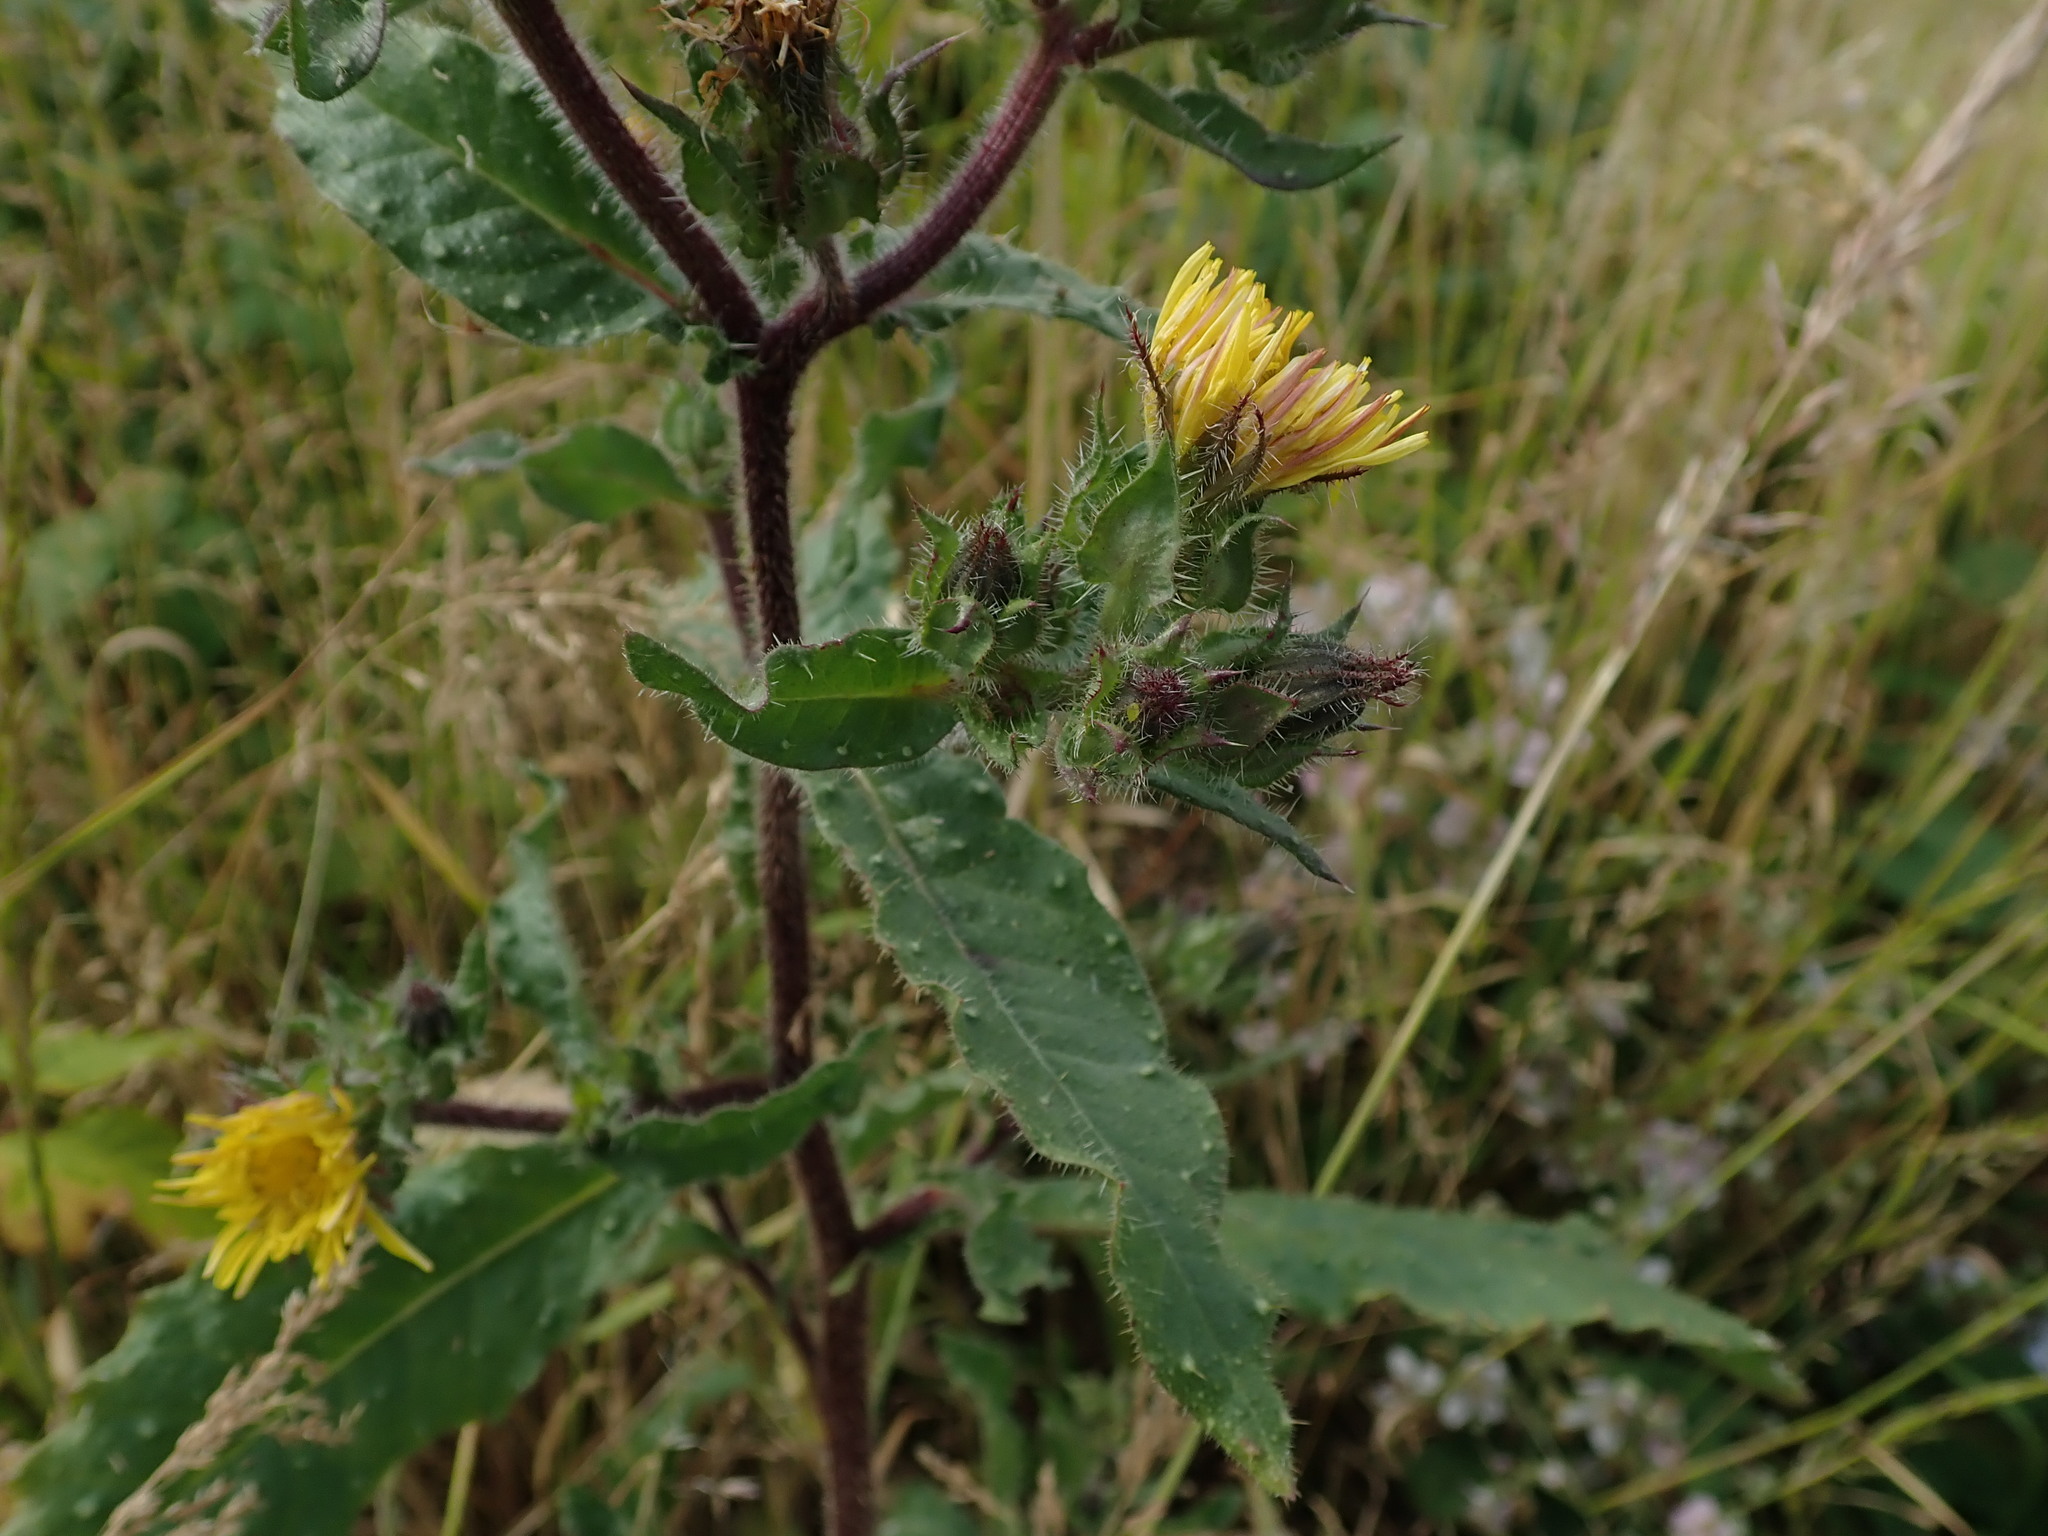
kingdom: Plantae
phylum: Tracheophyta
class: Magnoliopsida
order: Asterales
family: Asteraceae
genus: Helminthotheca
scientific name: Helminthotheca echioides
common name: Ox-tongue
